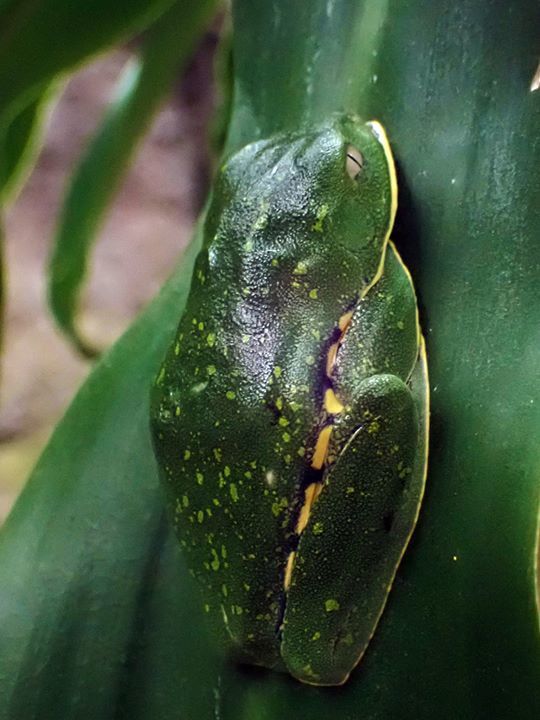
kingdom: Animalia
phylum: Chordata
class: Amphibia
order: Anura
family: Phyllomedusidae
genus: Cruziohyla
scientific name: Cruziohyla sylviae
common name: Sylvia's tree frog
